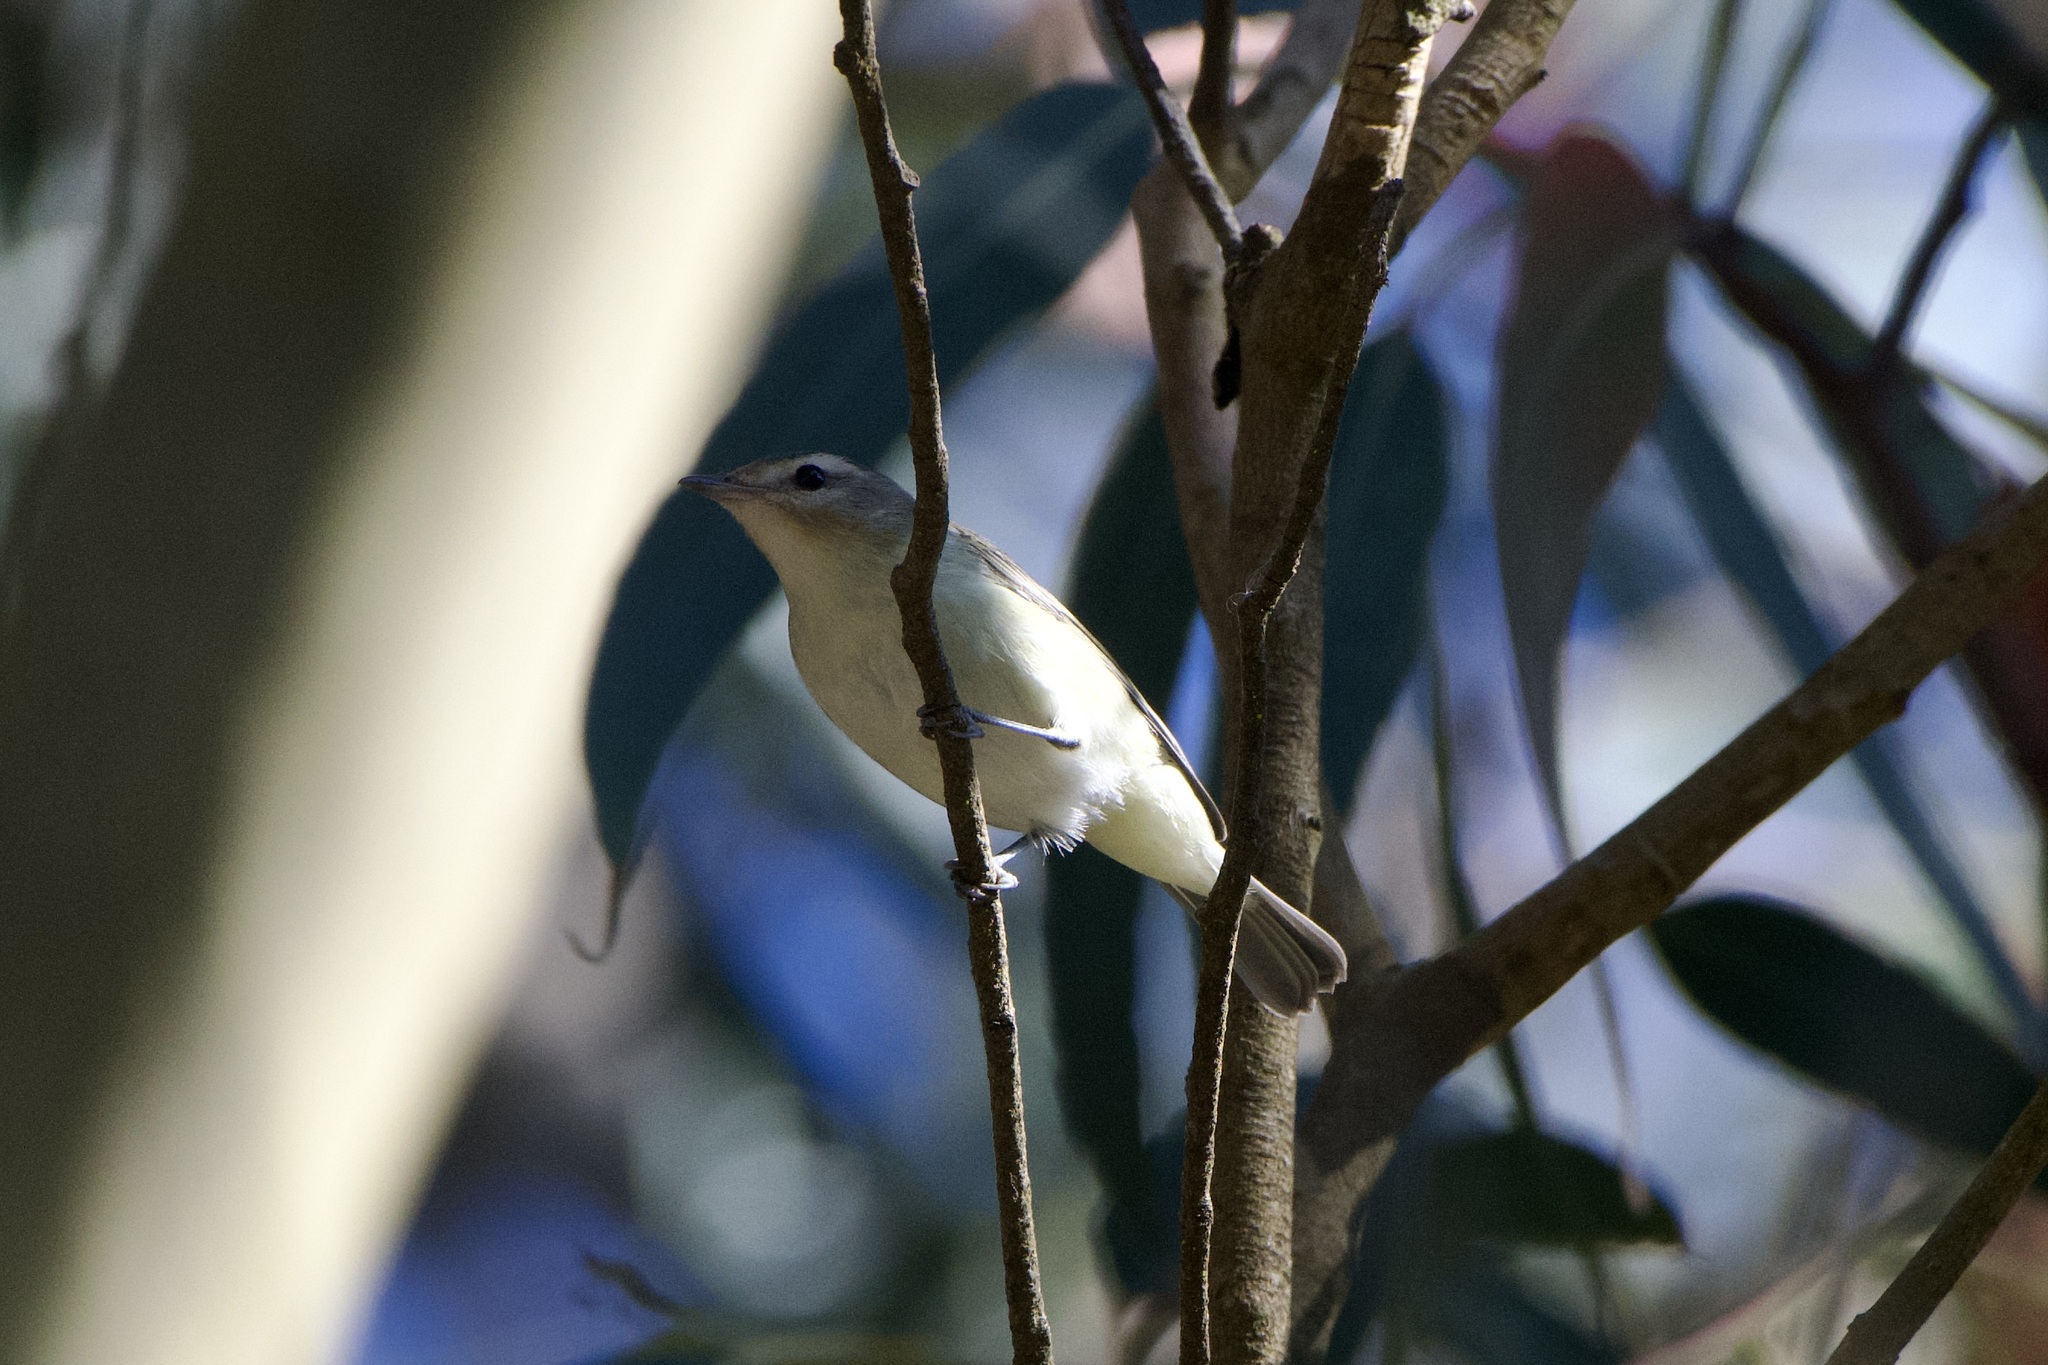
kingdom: Animalia
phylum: Chordata
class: Aves
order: Passeriformes
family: Vireonidae
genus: Vireo
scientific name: Vireo gilvus
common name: Warbling vireo
